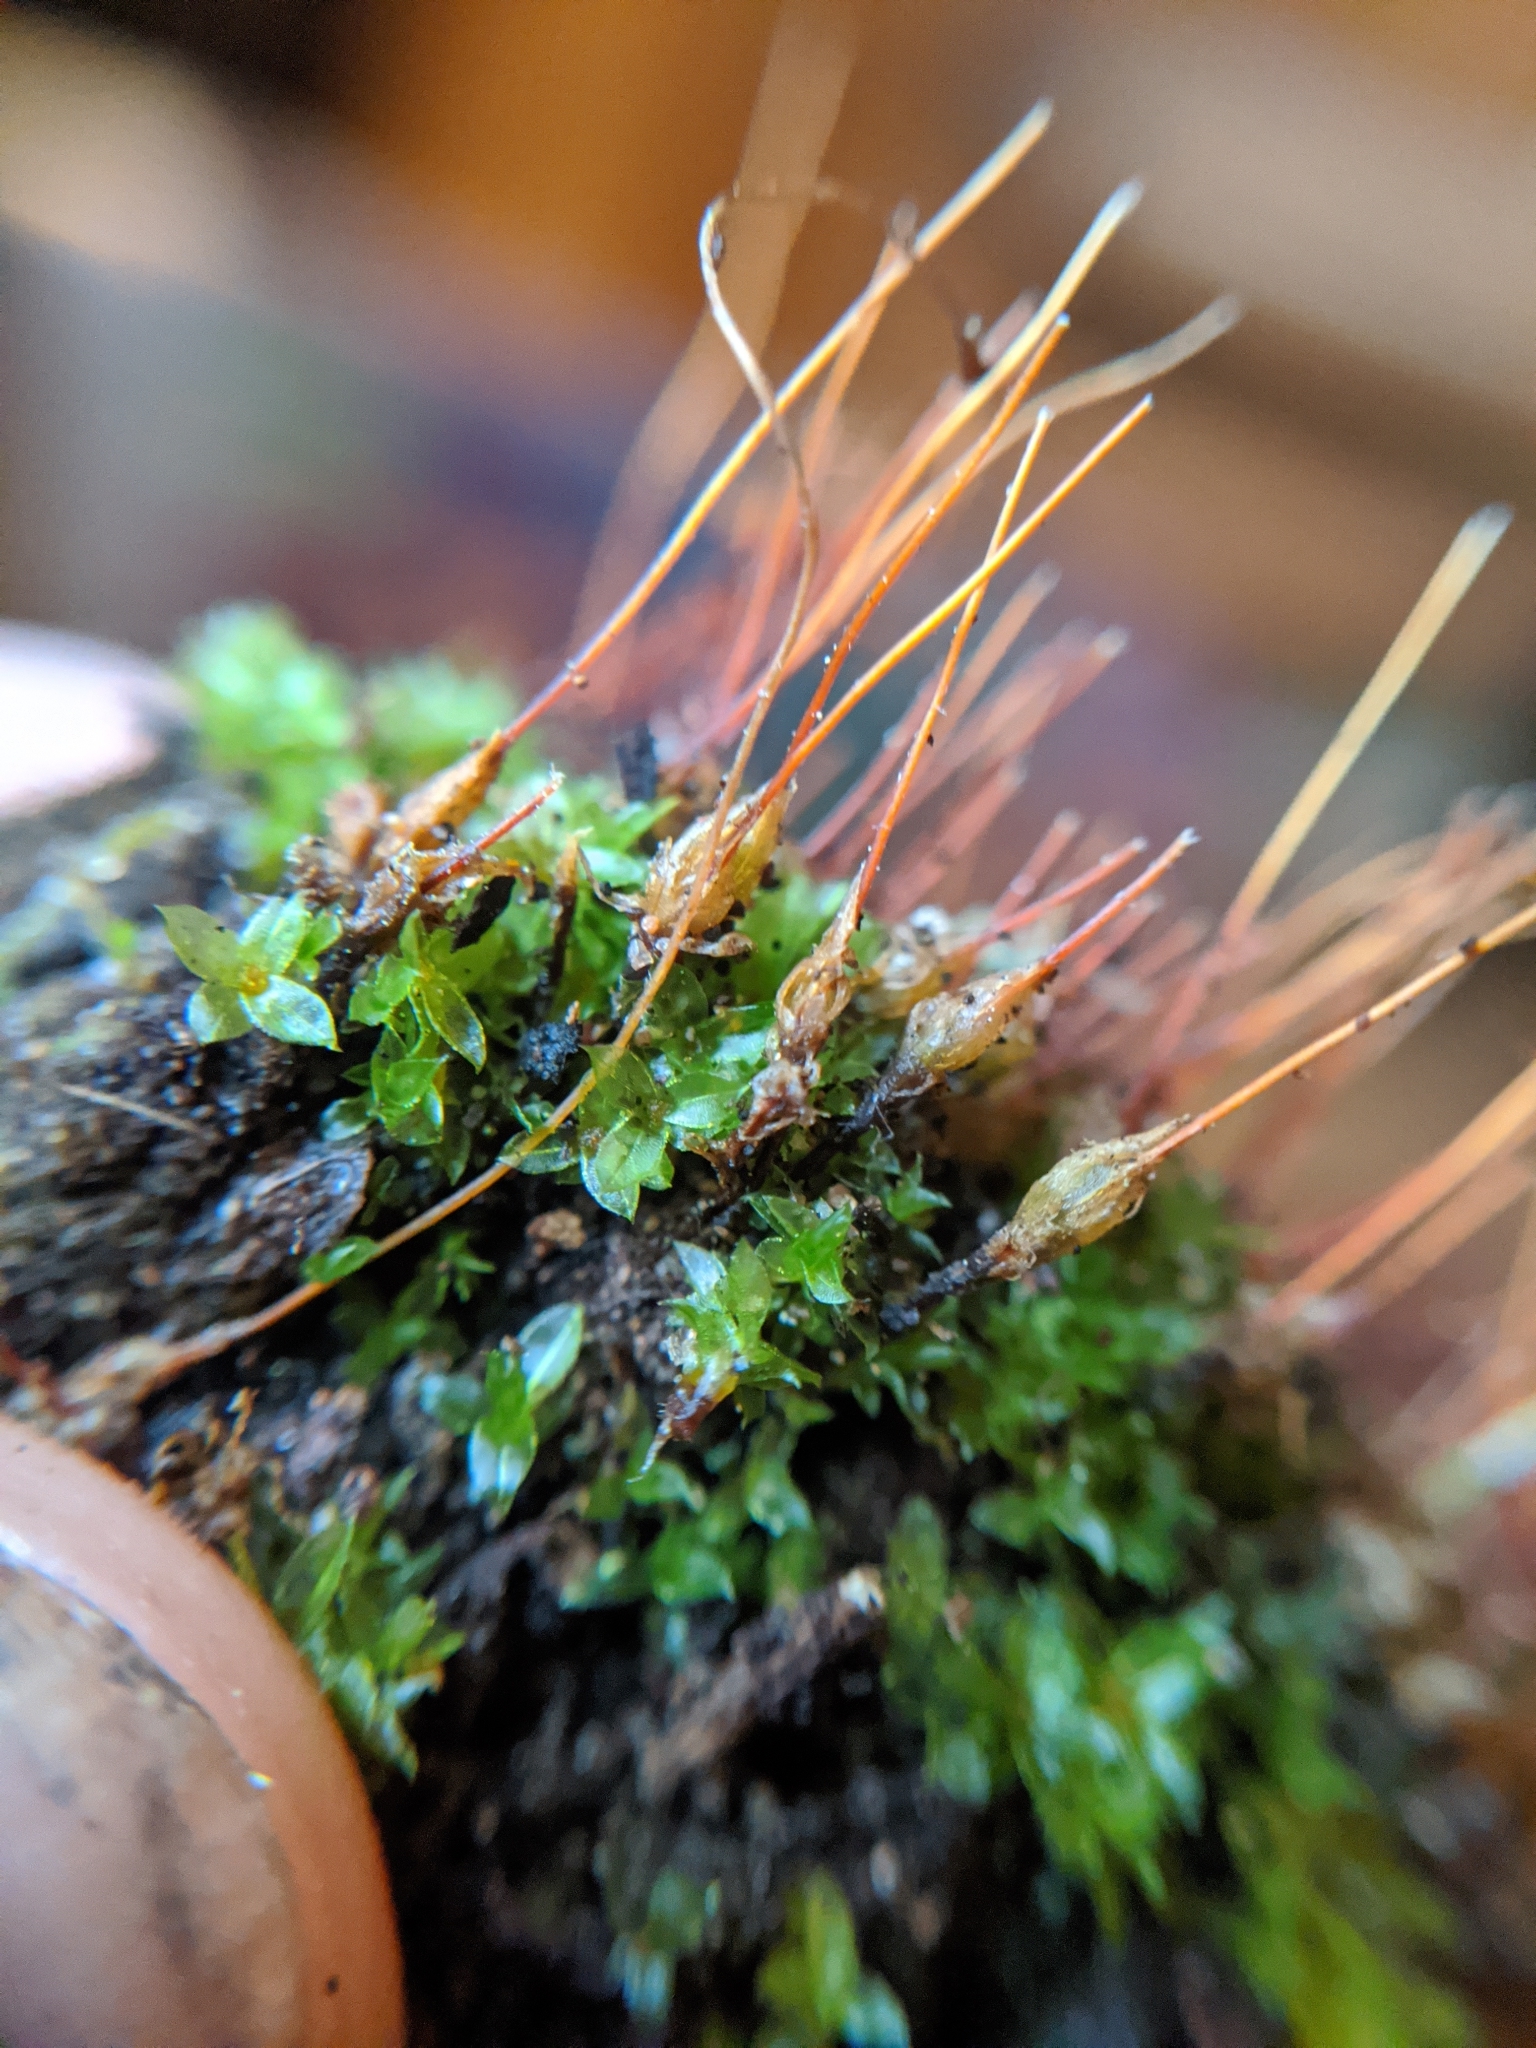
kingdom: Plantae
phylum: Bryophyta
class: Bryopsida
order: Funariales
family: Funariaceae
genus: Funaria
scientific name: Funaria hygrometrica
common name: Common cord moss
